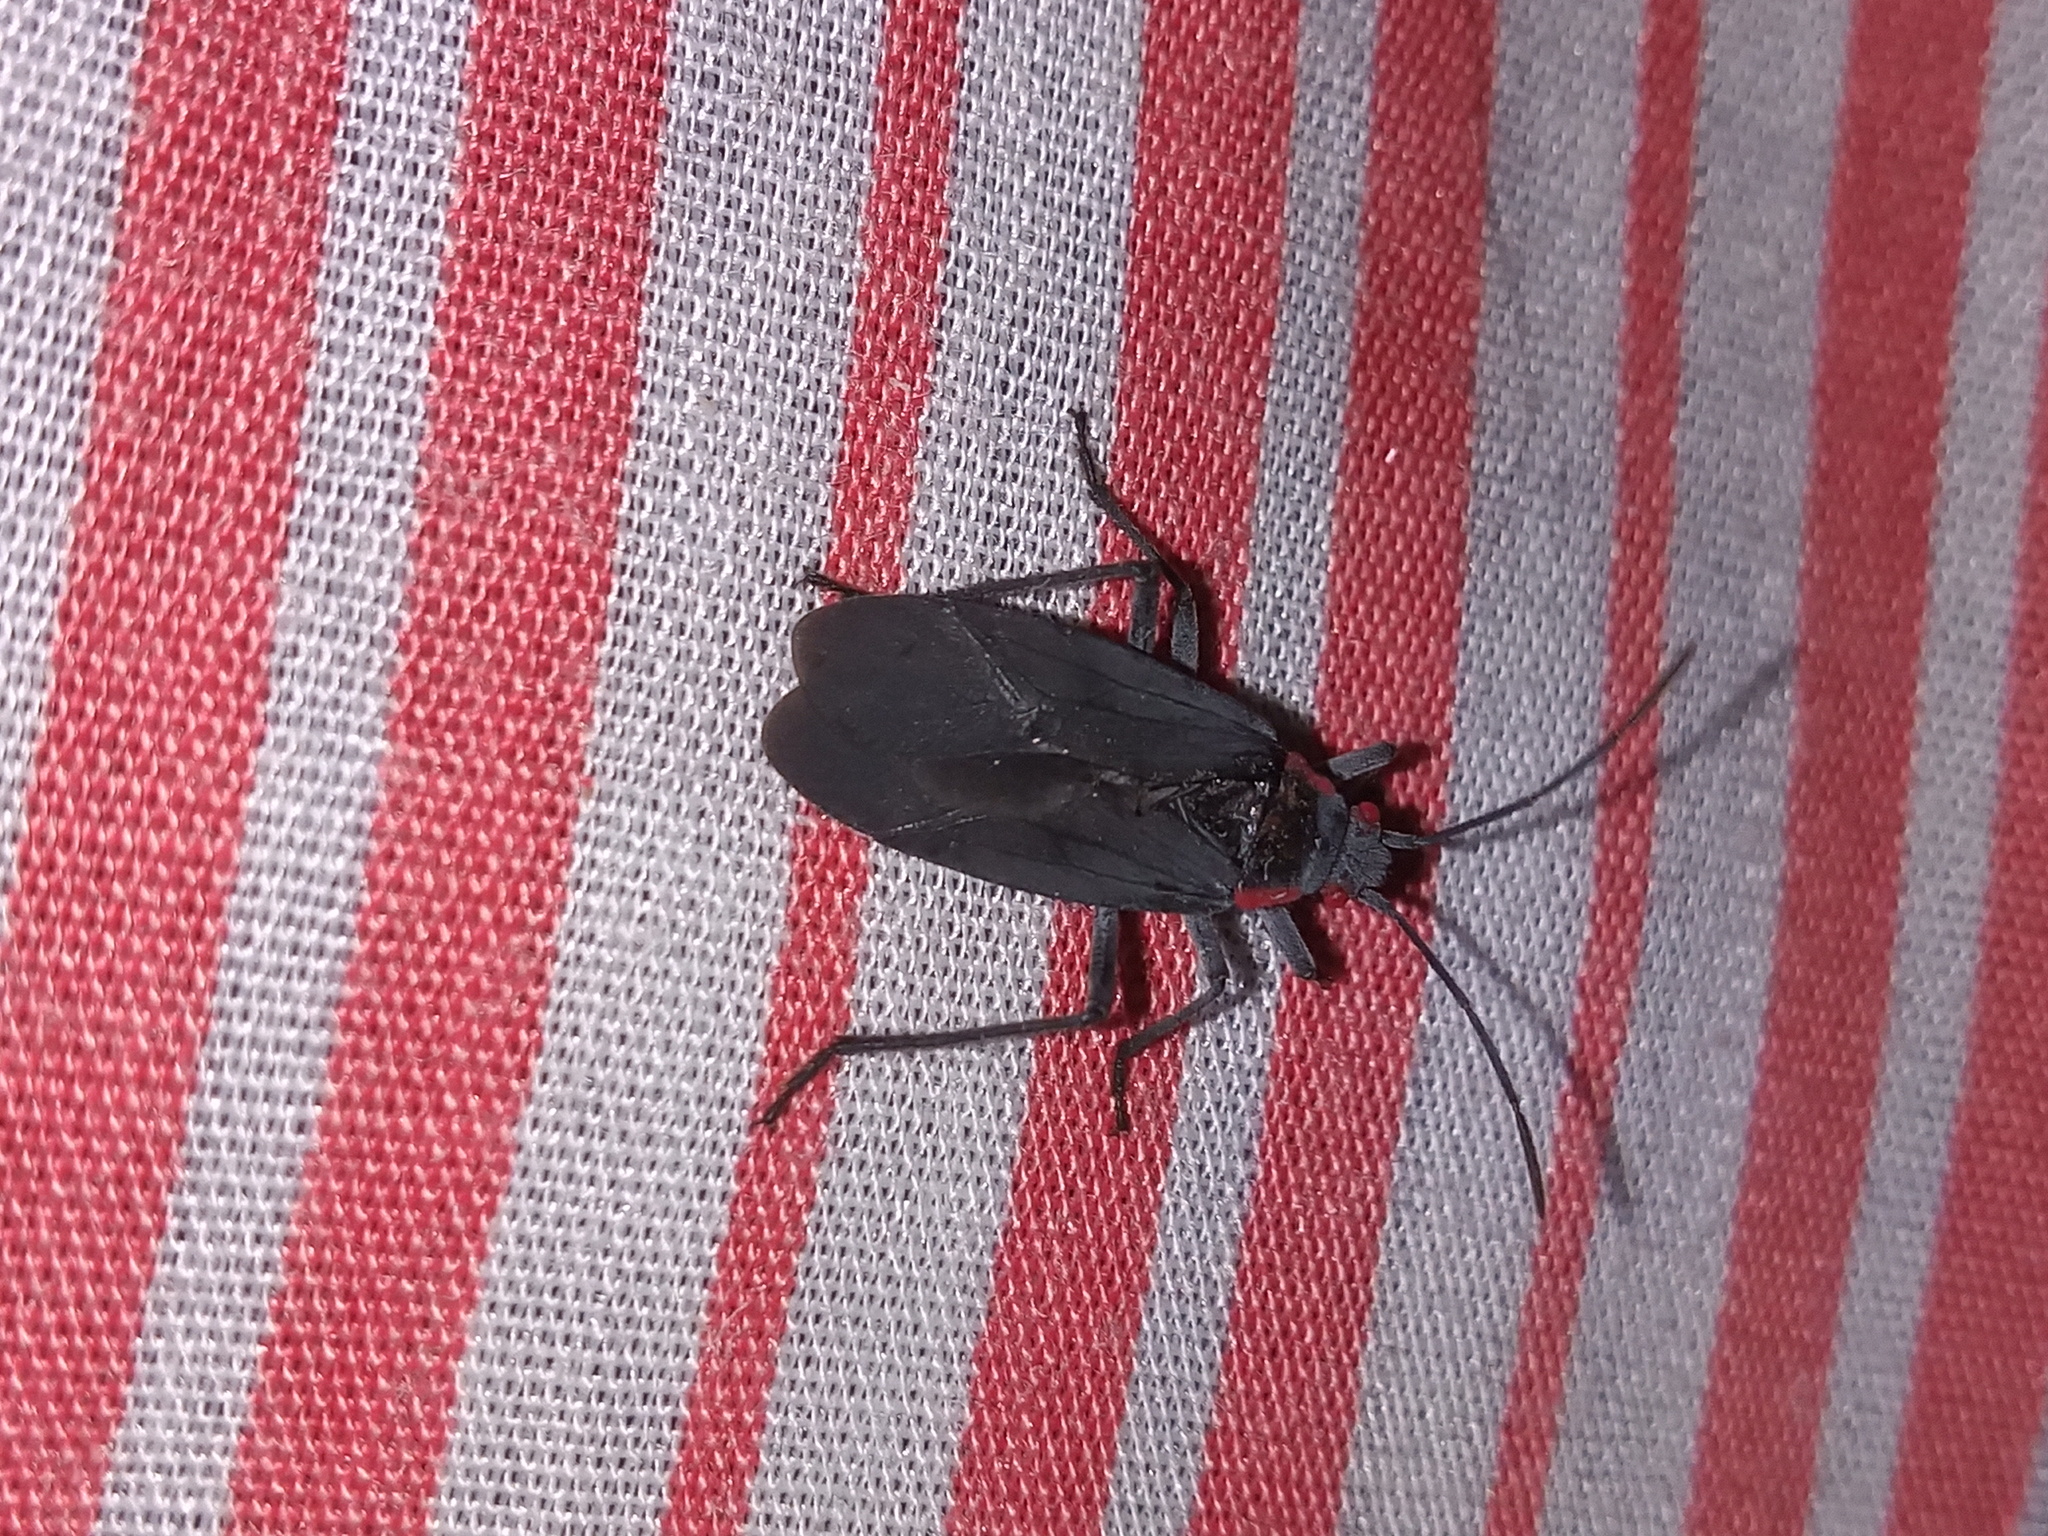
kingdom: Animalia
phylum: Arthropoda
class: Insecta
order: Hemiptera
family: Rhopalidae
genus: Jadera
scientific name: Jadera haematoloma
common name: Red-shouldered bug
